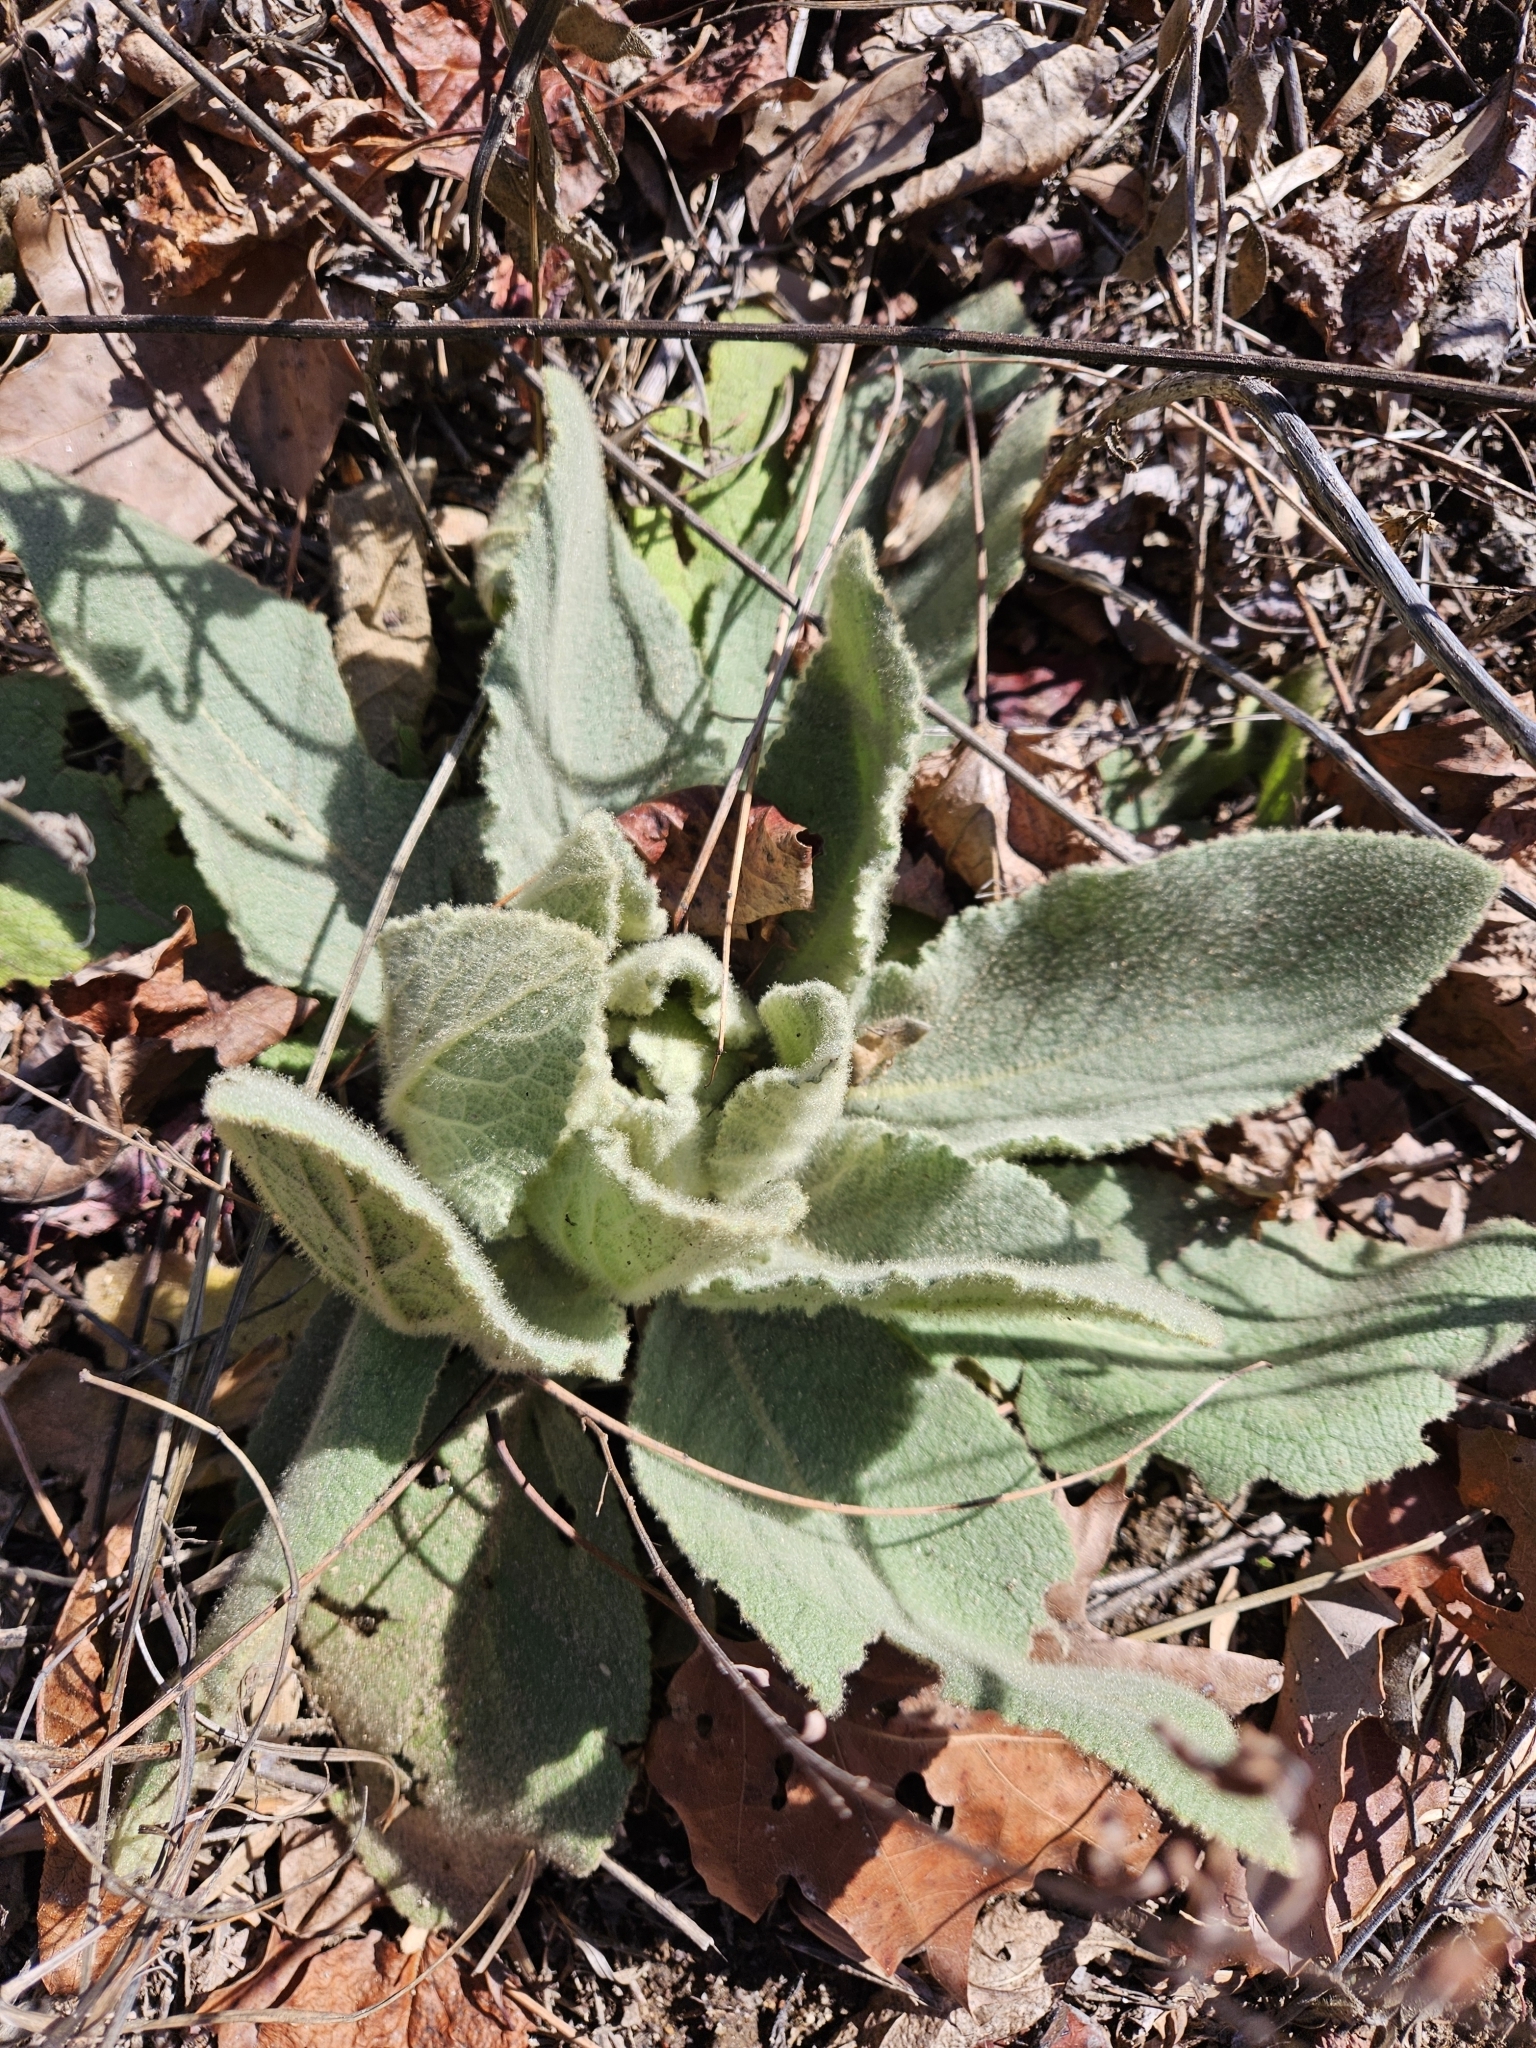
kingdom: Plantae
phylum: Tracheophyta
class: Magnoliopsida
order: Lamiales
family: Scrophulariaceae
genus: Verbascum
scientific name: Verbascum thapsus
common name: Common mullein
